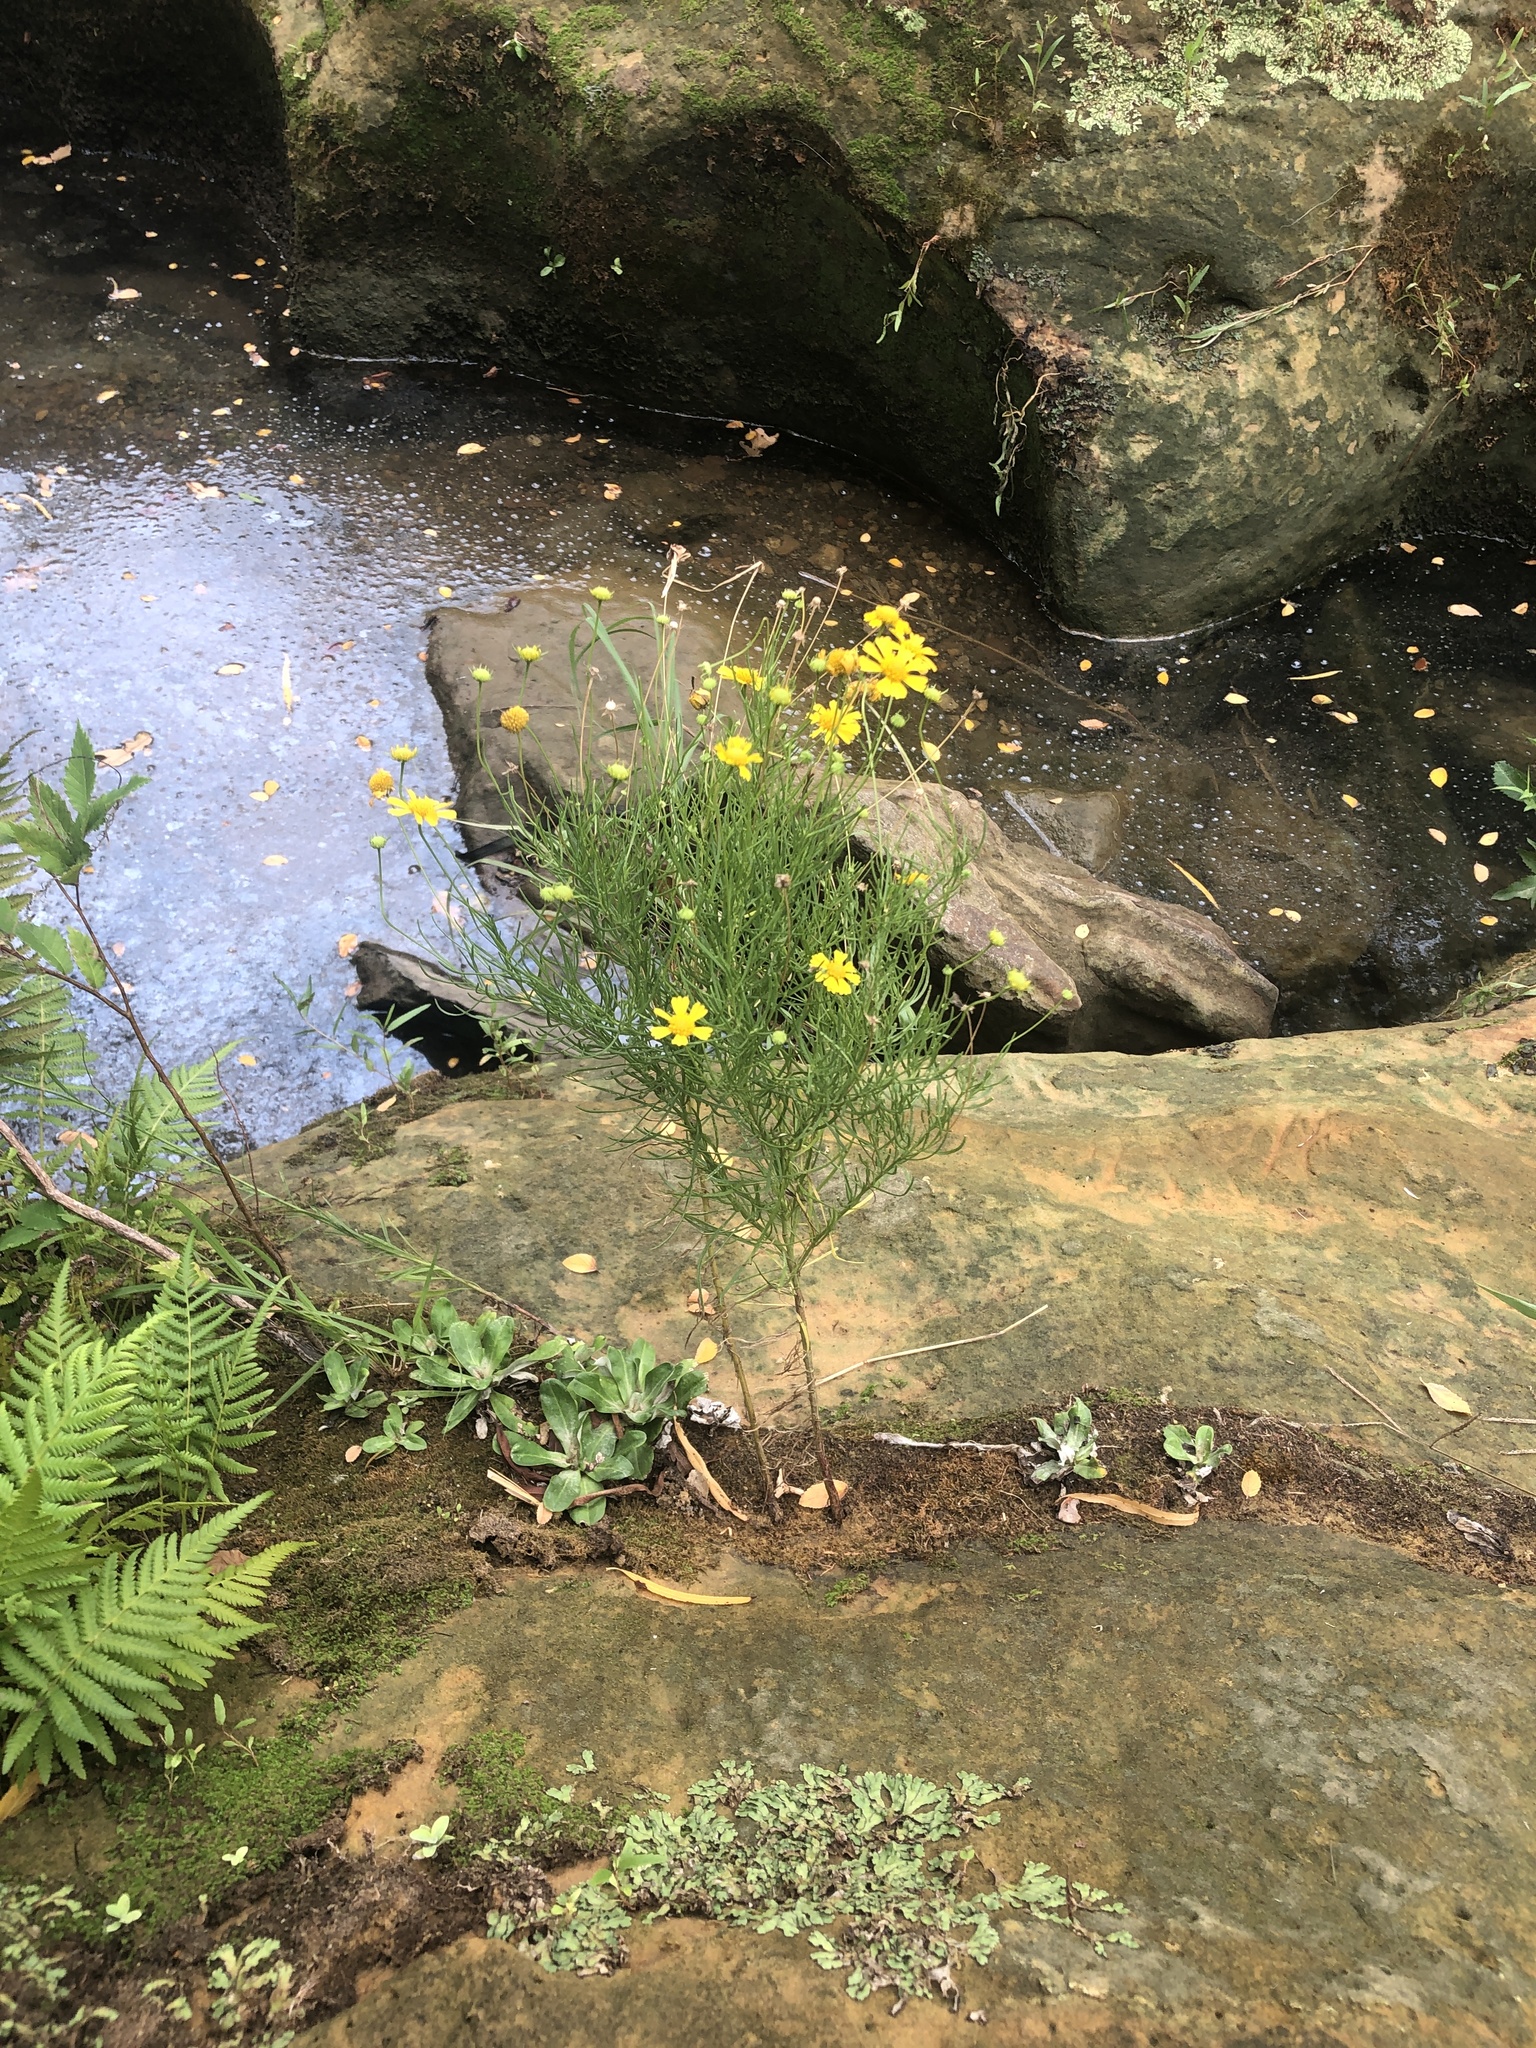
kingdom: Plantae
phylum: Tracheophyta
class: Magnoliopsida
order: Asterales
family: Asteraceae
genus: Helenium
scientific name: Helenium amarum
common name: Bitter sneezeweed
